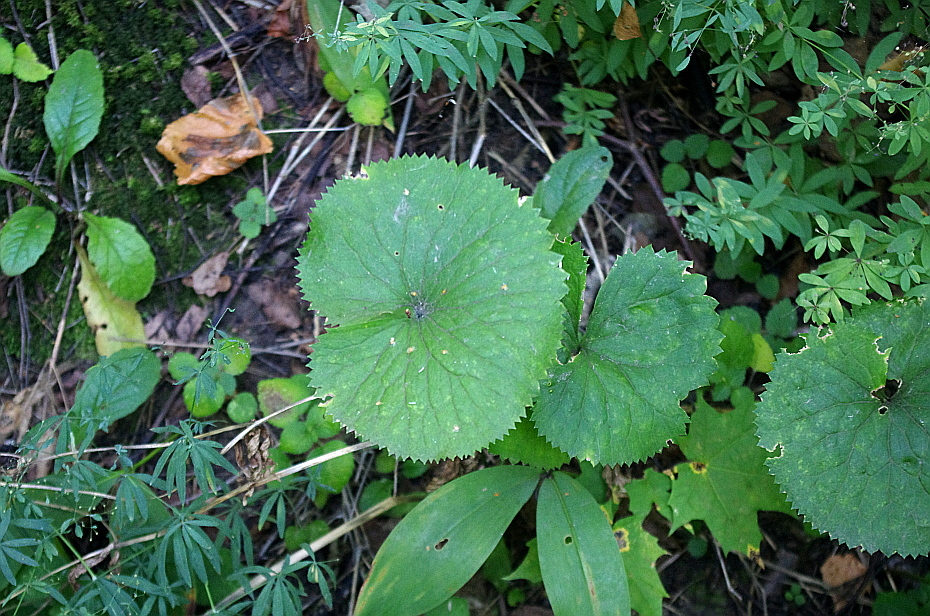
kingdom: Plantae
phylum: Tracheophyta
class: Magnoliopsida
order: Ranunculales
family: Ranunculaceae
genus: Ranunculus
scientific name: Ranunculus cassubicus
